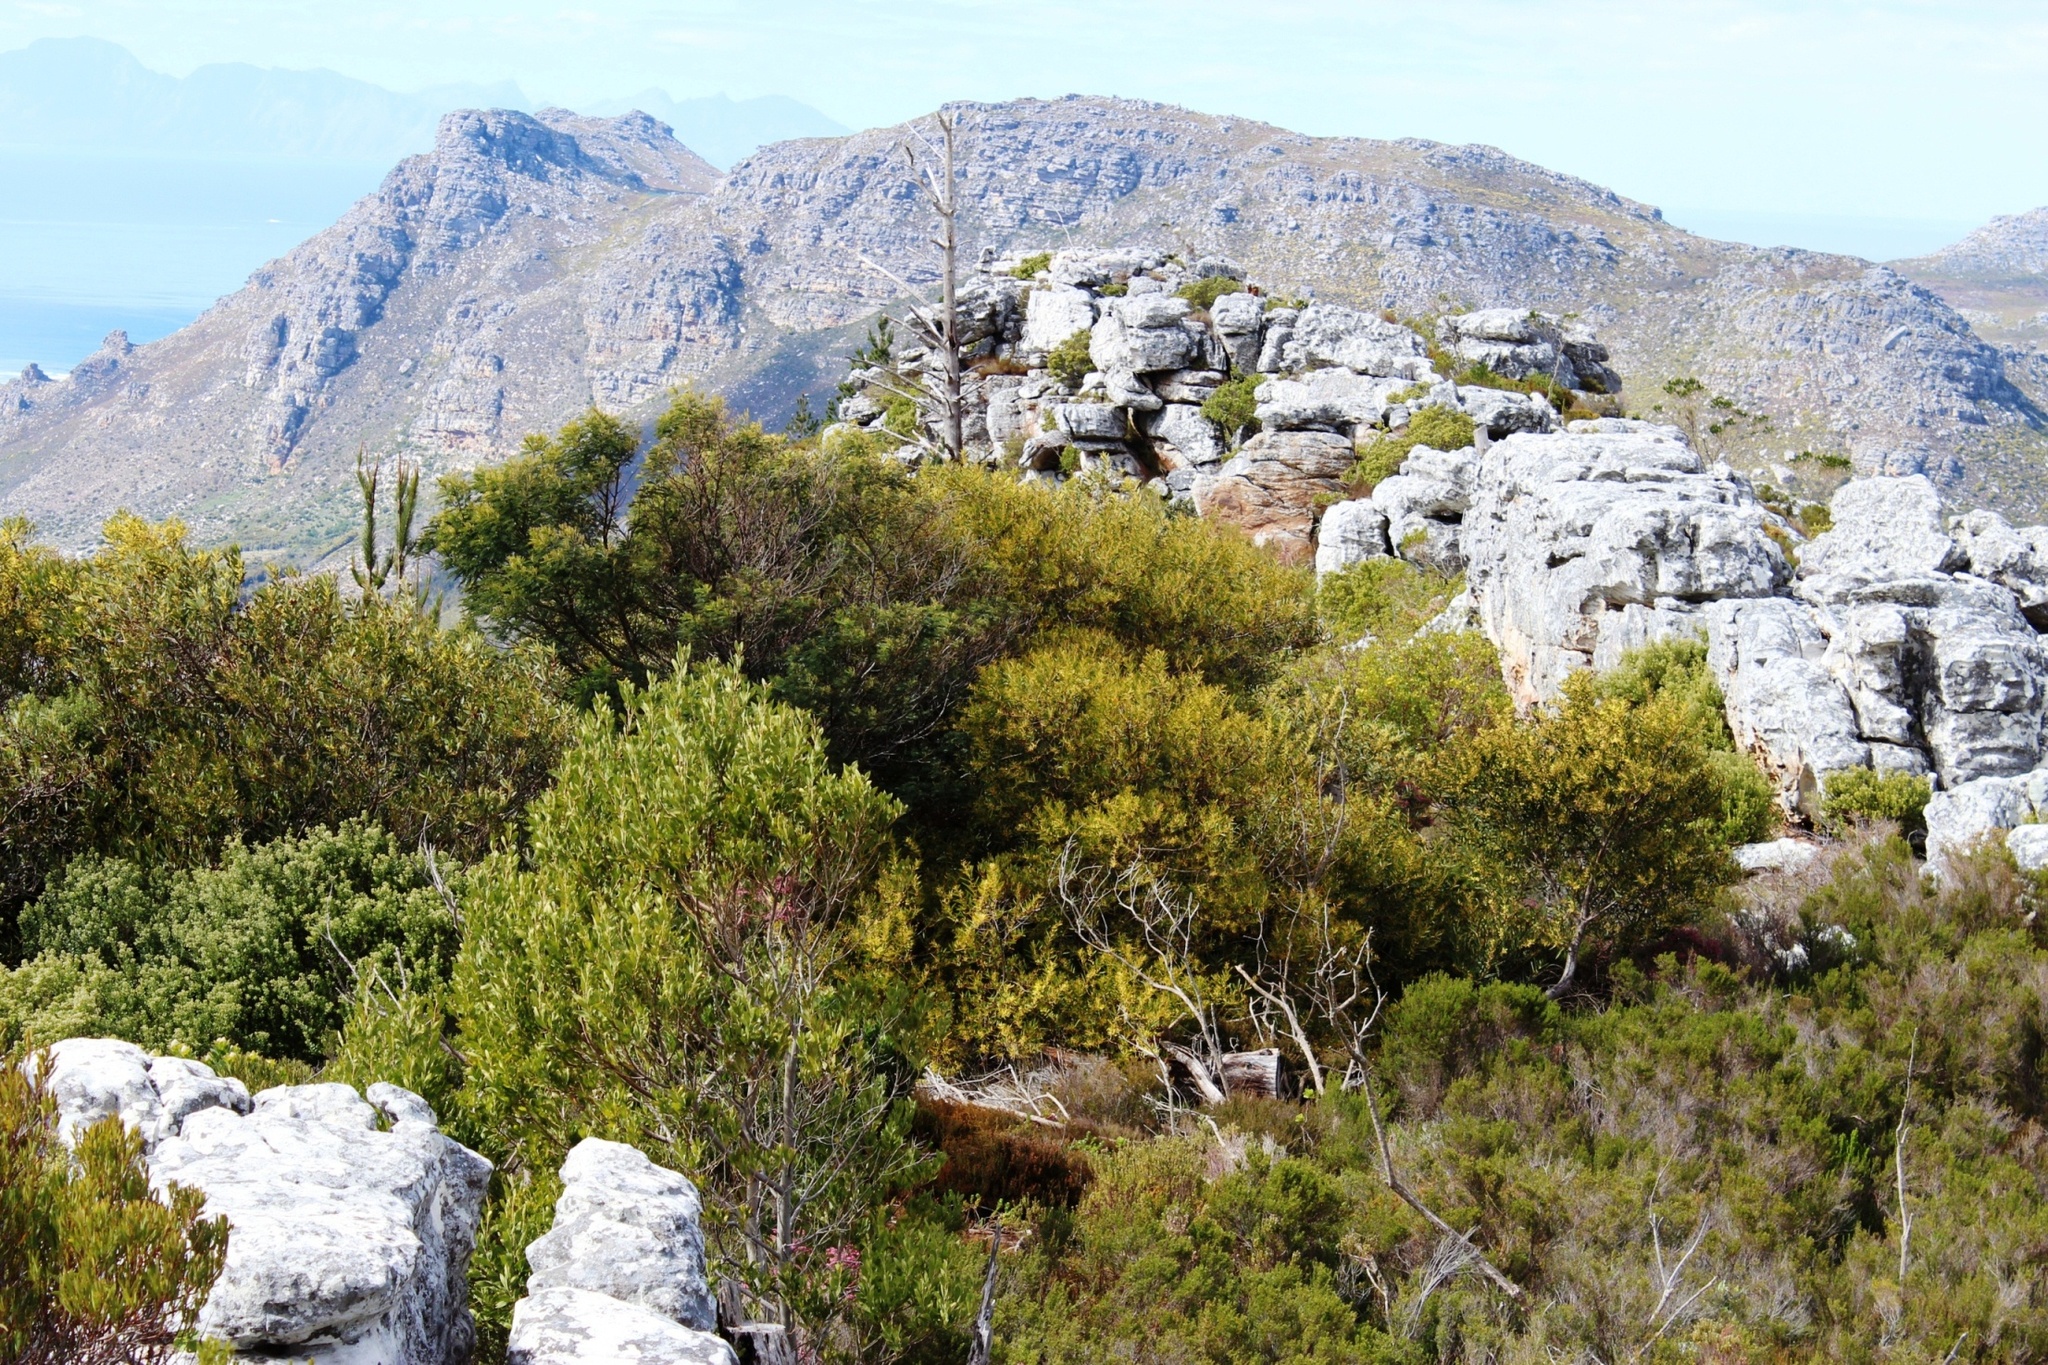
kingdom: Plantae
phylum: Tracheophyta
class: Magnoliopsida
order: Fabales
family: Fabaceae
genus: Acacia
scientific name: Acacia longifolia
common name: Sydney golden wattle
